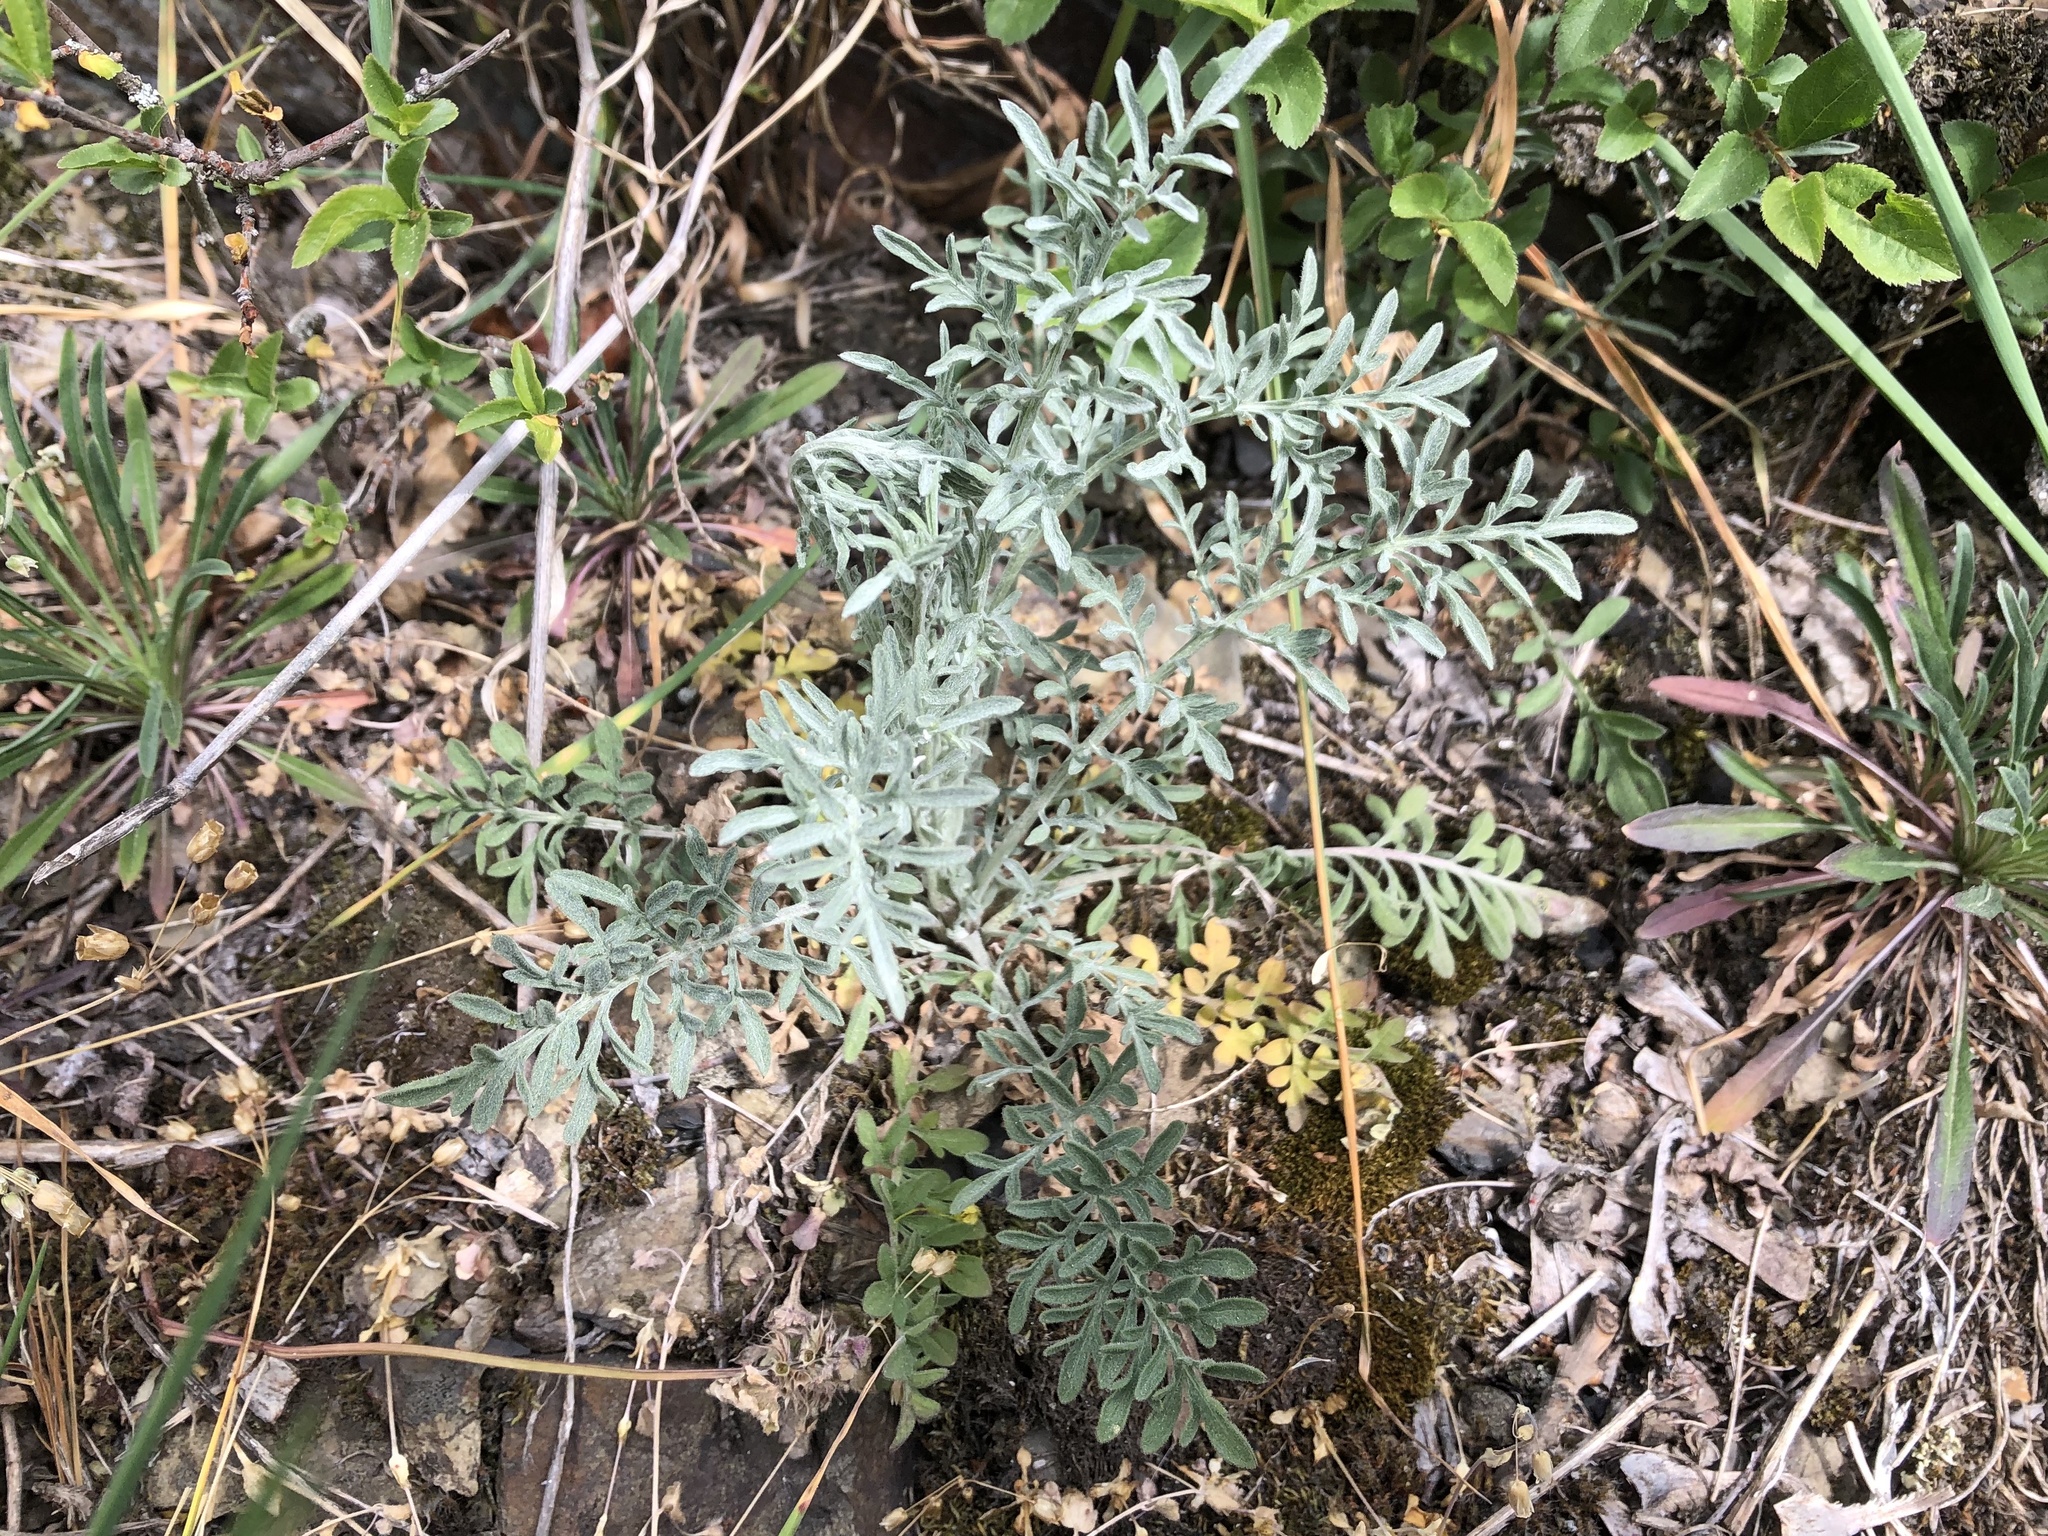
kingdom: Plantae
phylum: Tracheophyta
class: Magnoliopsida
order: Asterales
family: Asteraceae
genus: Centaurea
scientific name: Centaurea stoebe
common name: Spotted knapweed
